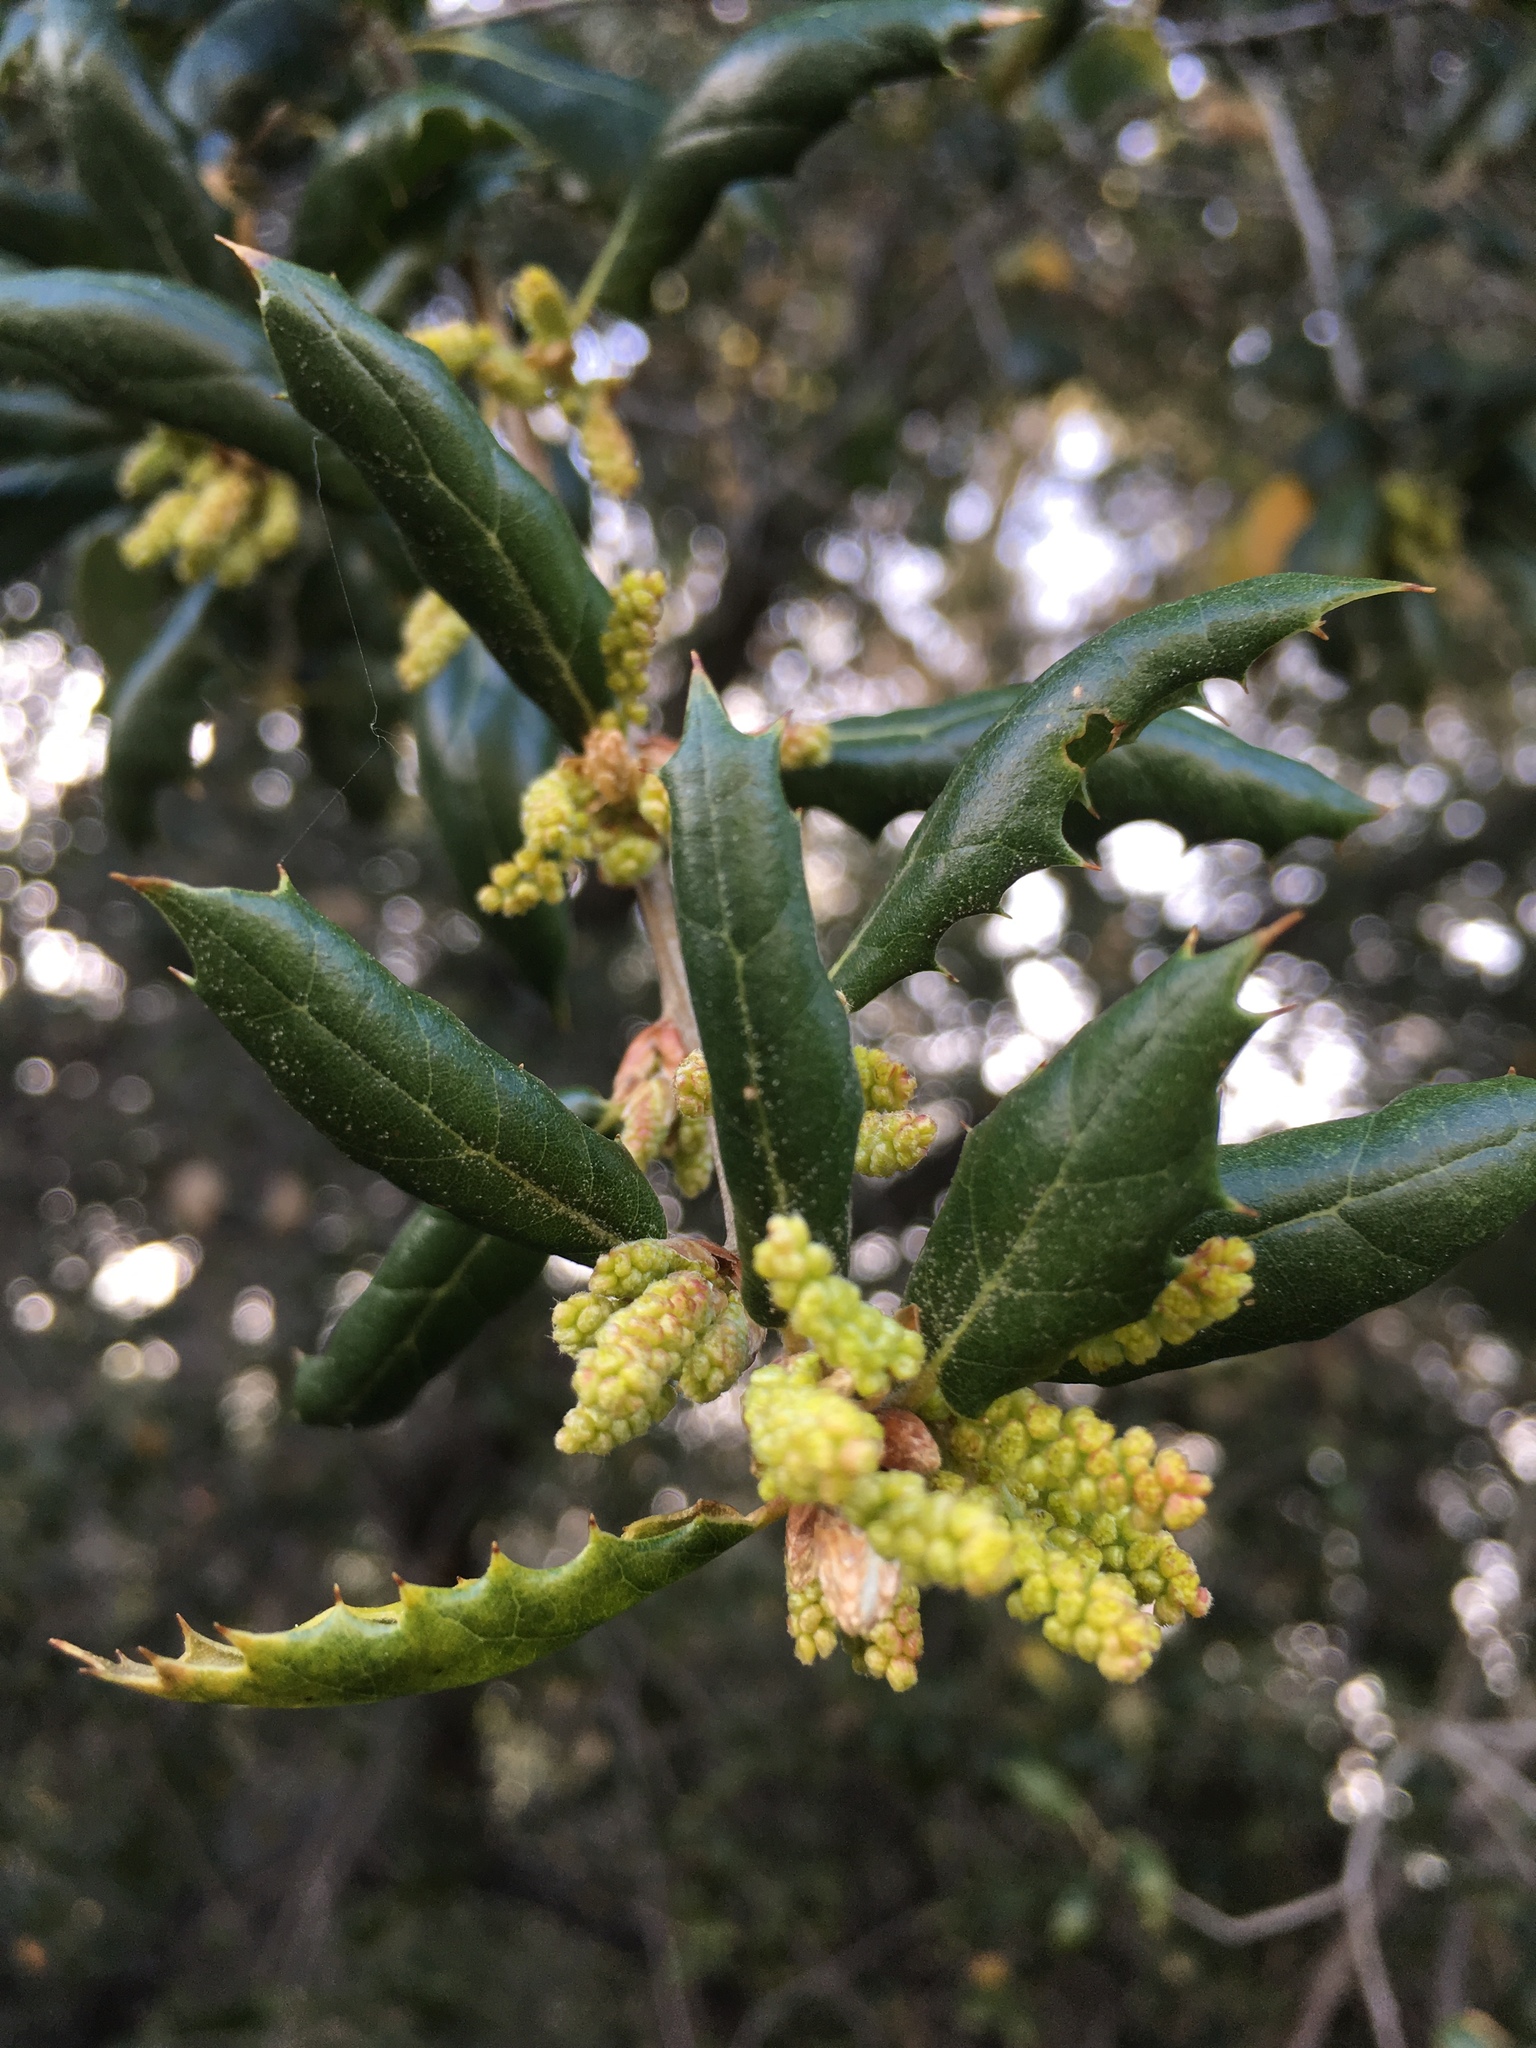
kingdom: Plantae
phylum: Tracheophyta
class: Magnoliopsida
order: Fagales
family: Fagaceae
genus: Quercus
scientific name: Quercus agrifolia
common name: California live oak
